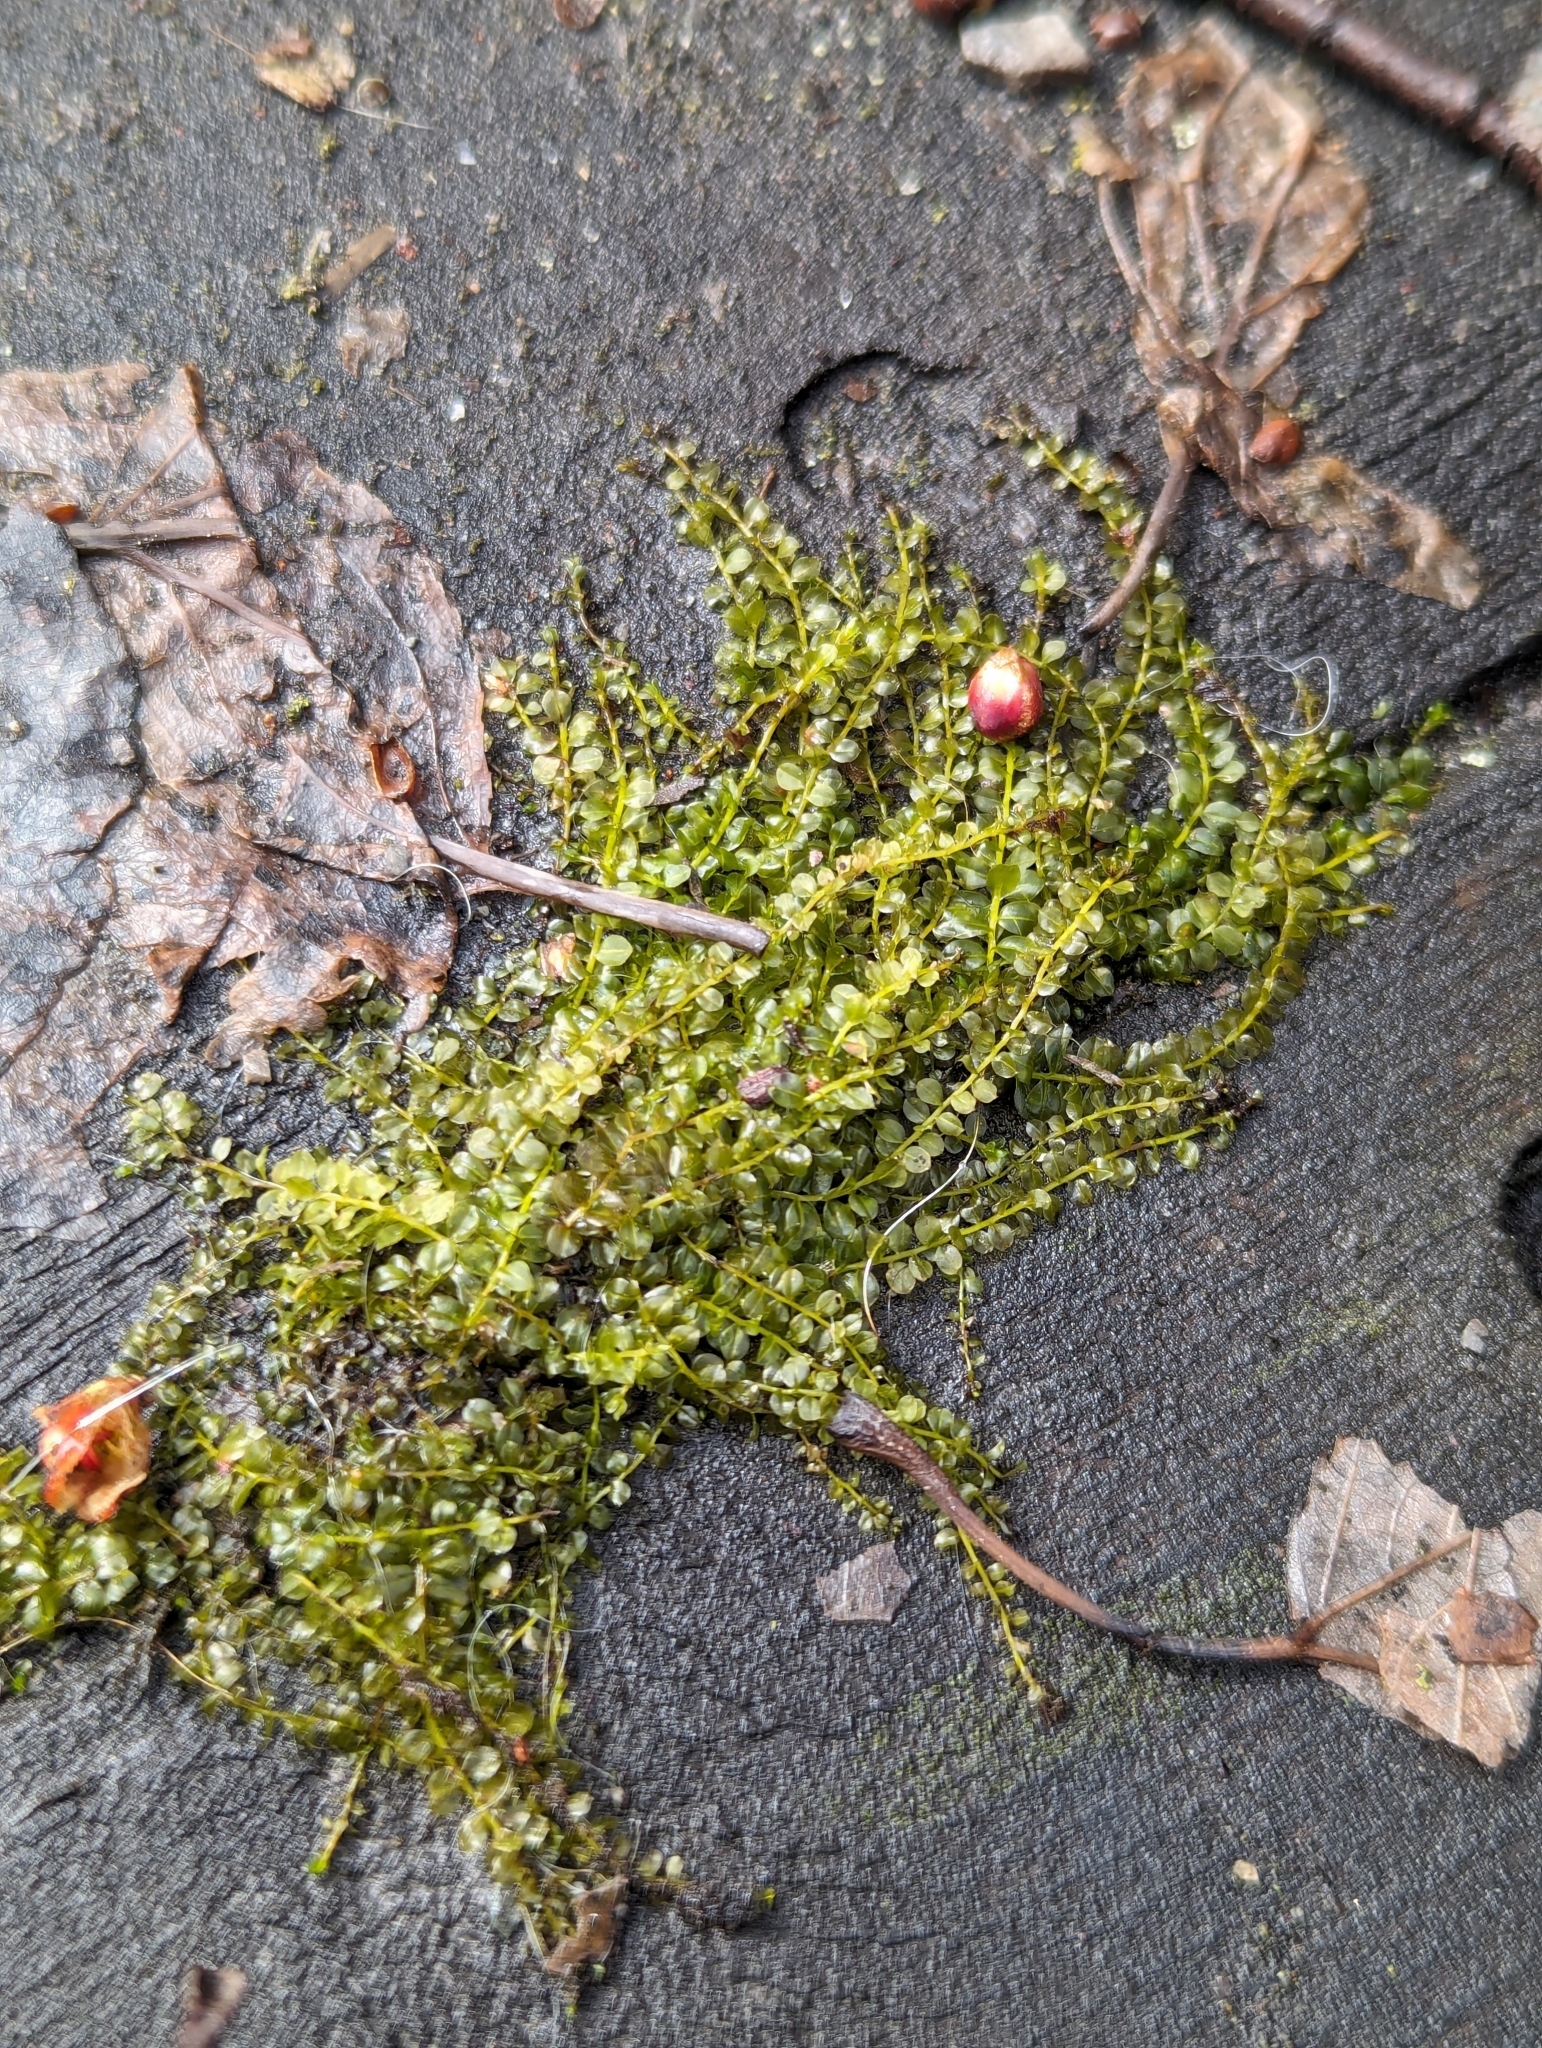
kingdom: Plantae
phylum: Bryophyta
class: Bryopsida
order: Bryales
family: Mniaceae
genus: Plagiomnium
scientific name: Plagiomnium cuspidatum
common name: Woodsy leafy moss
